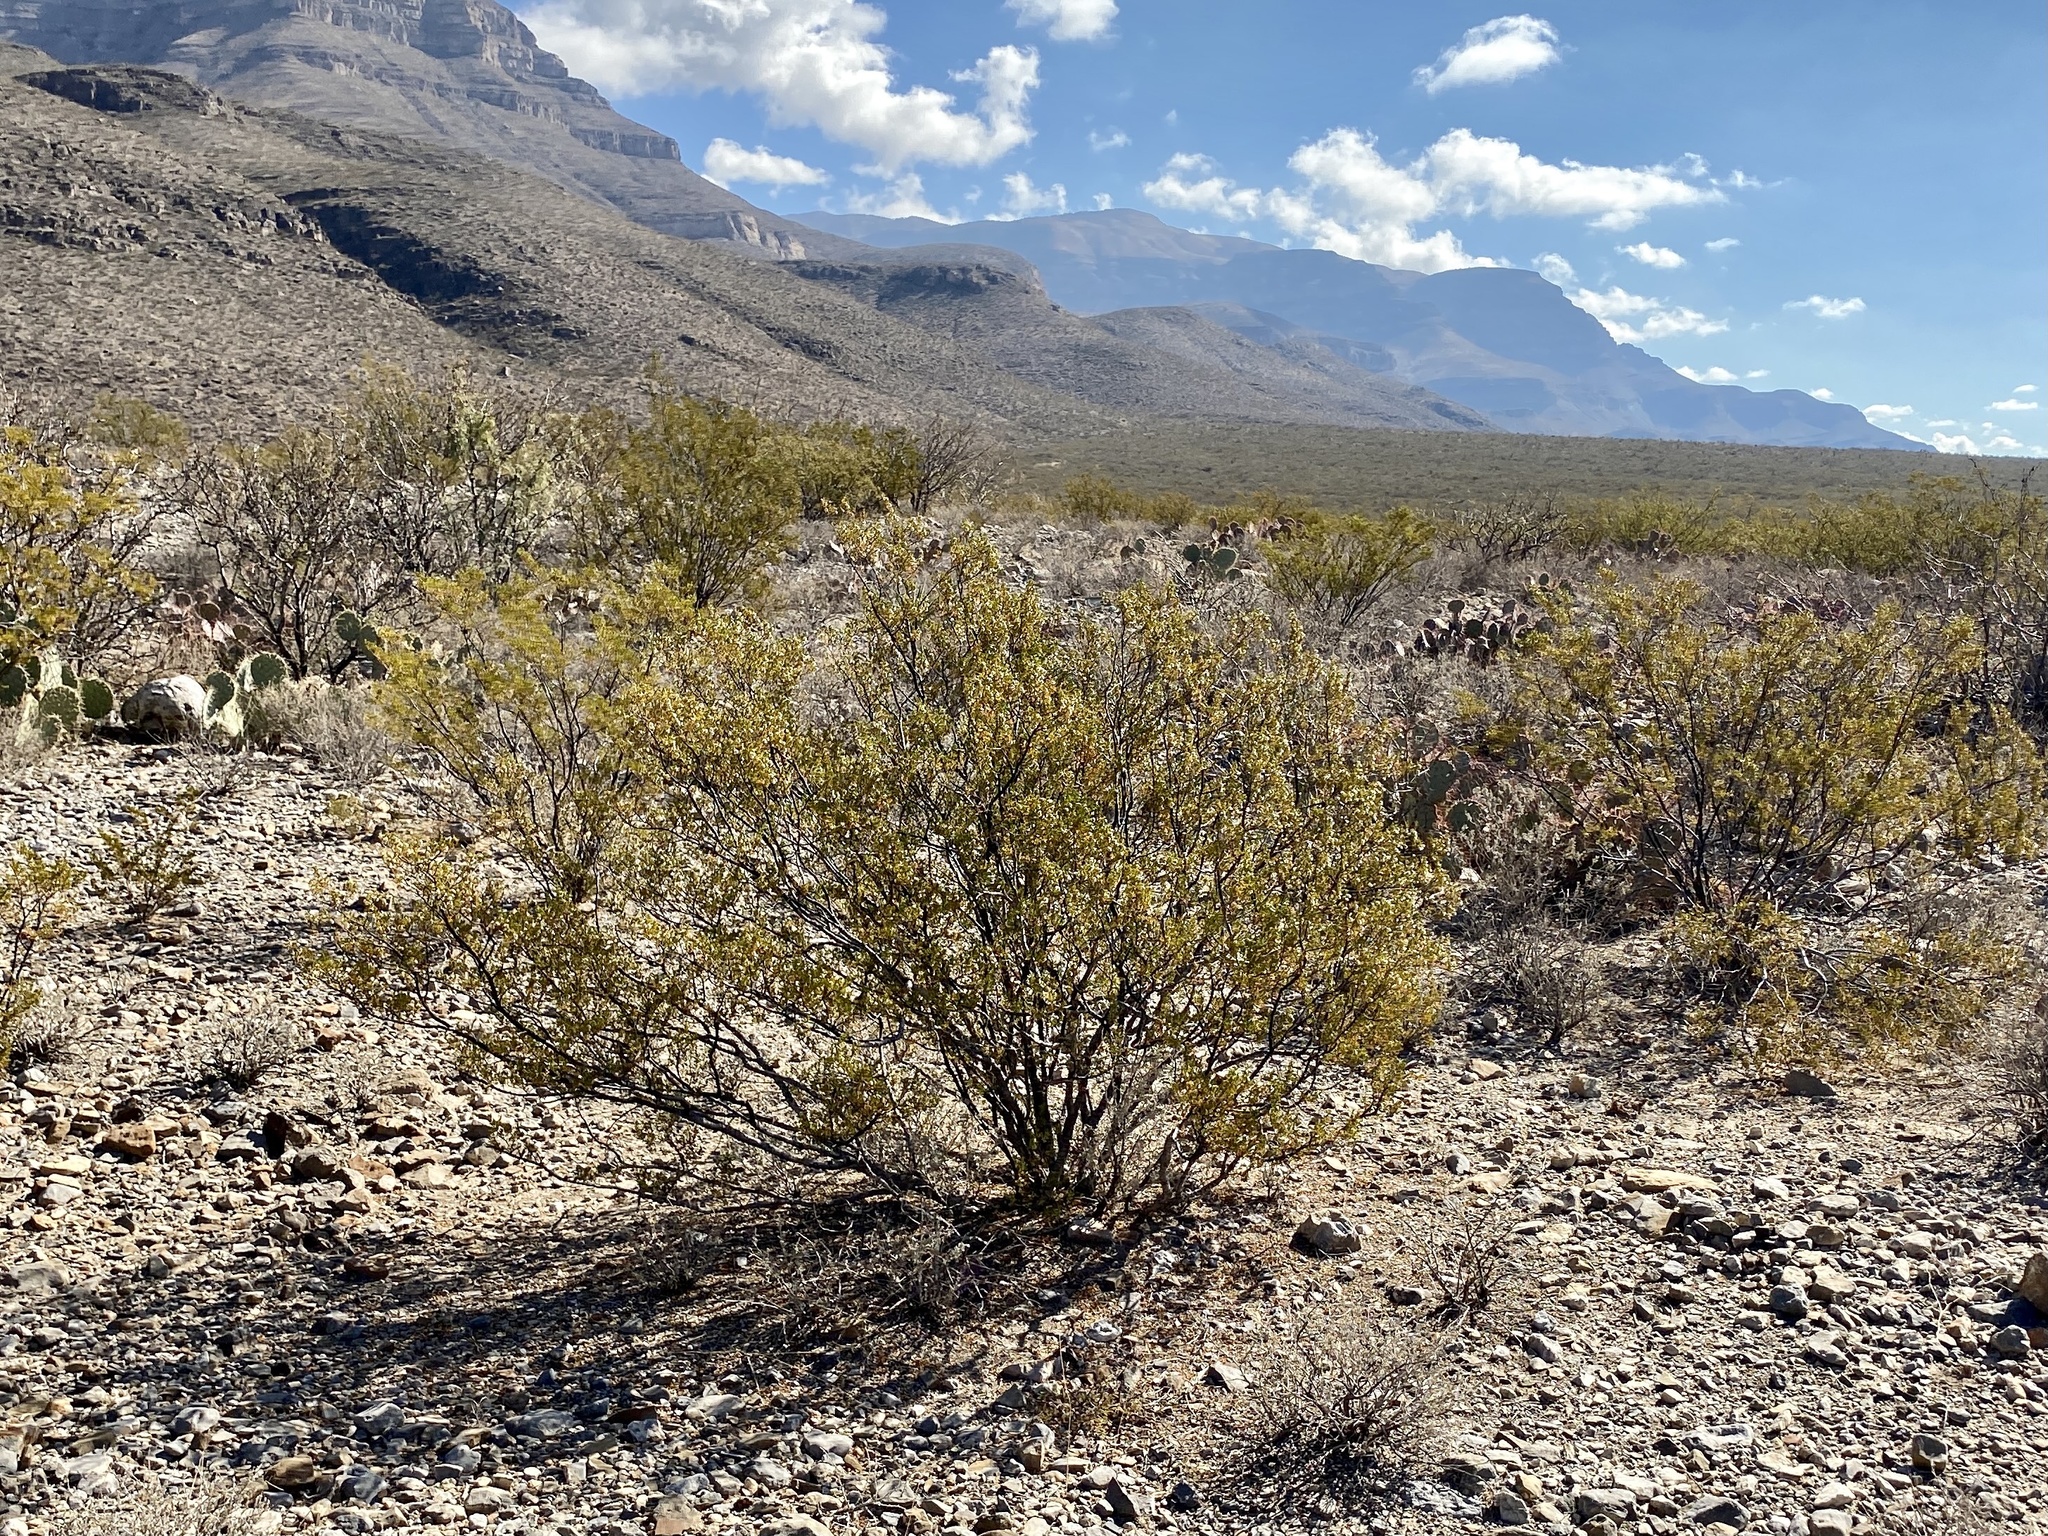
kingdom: Plantae
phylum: Tracheophyta
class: Magnoliopsida
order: Zygophyllales
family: Zygophyllaceae
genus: Larrea
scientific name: Larrea tridentata
